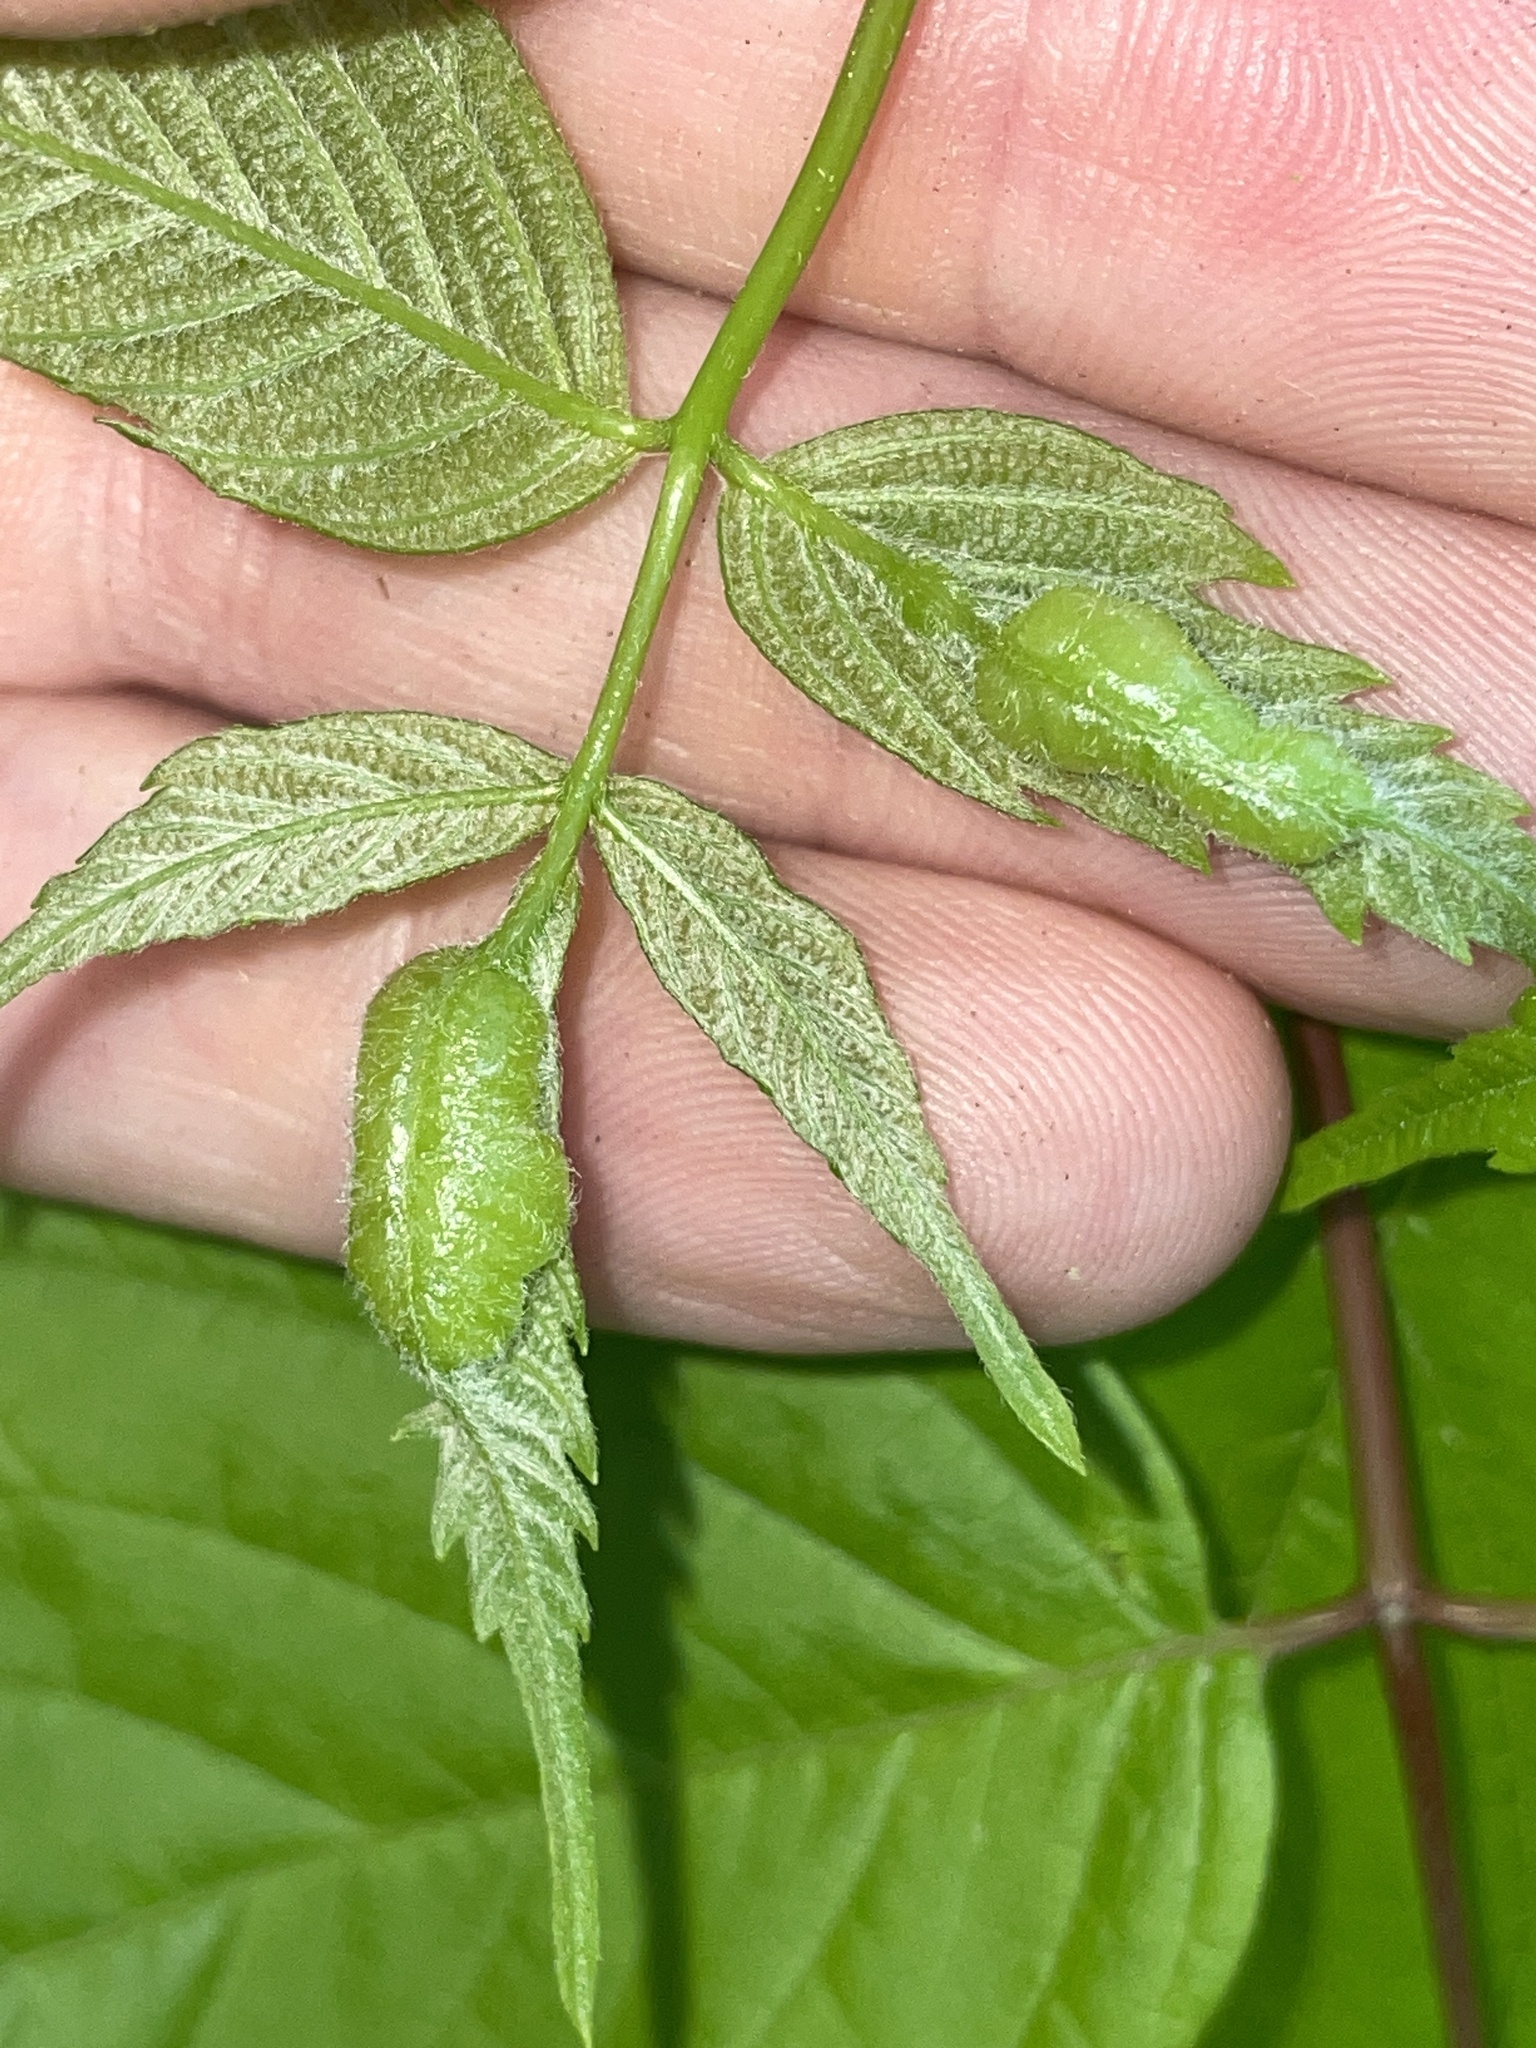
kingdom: Animalia
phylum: Arthropoda
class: Insecta
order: Diptera
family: Cecidomyiidae
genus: Contarinia
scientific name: Contarinia negundinis
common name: Boxelder budgall midge
